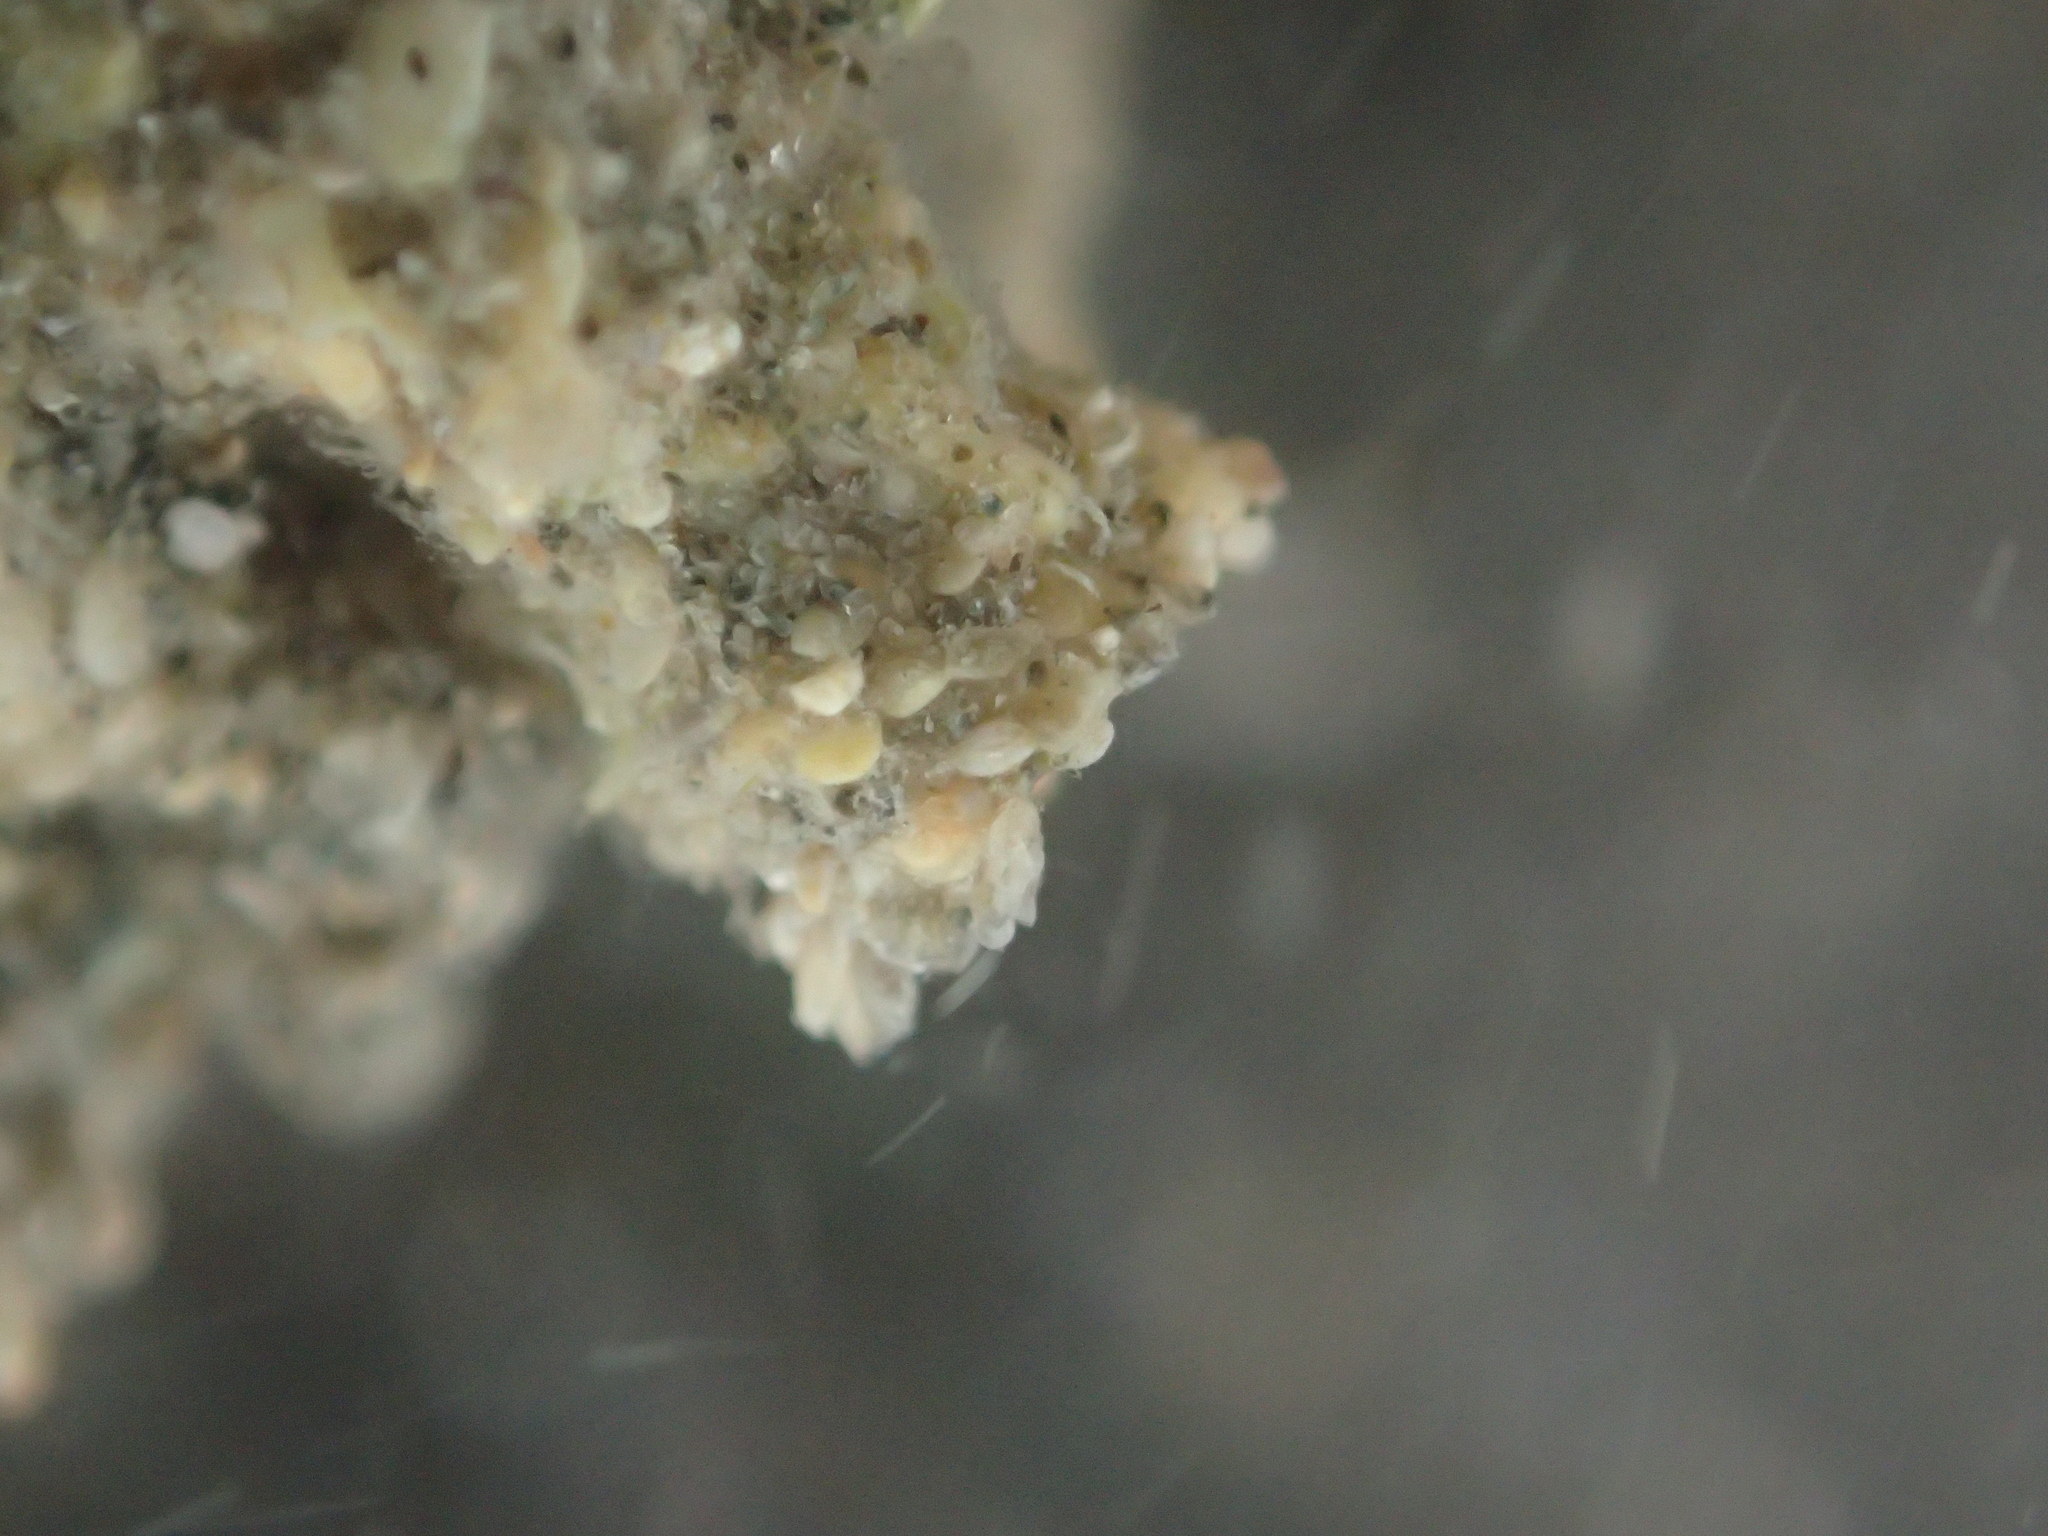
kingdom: Animalia
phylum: Annelida
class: Polychaeta
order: Sabellida
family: Sabellariidae
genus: Neosabellaria
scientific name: Neosabellaria kaiparaensis
